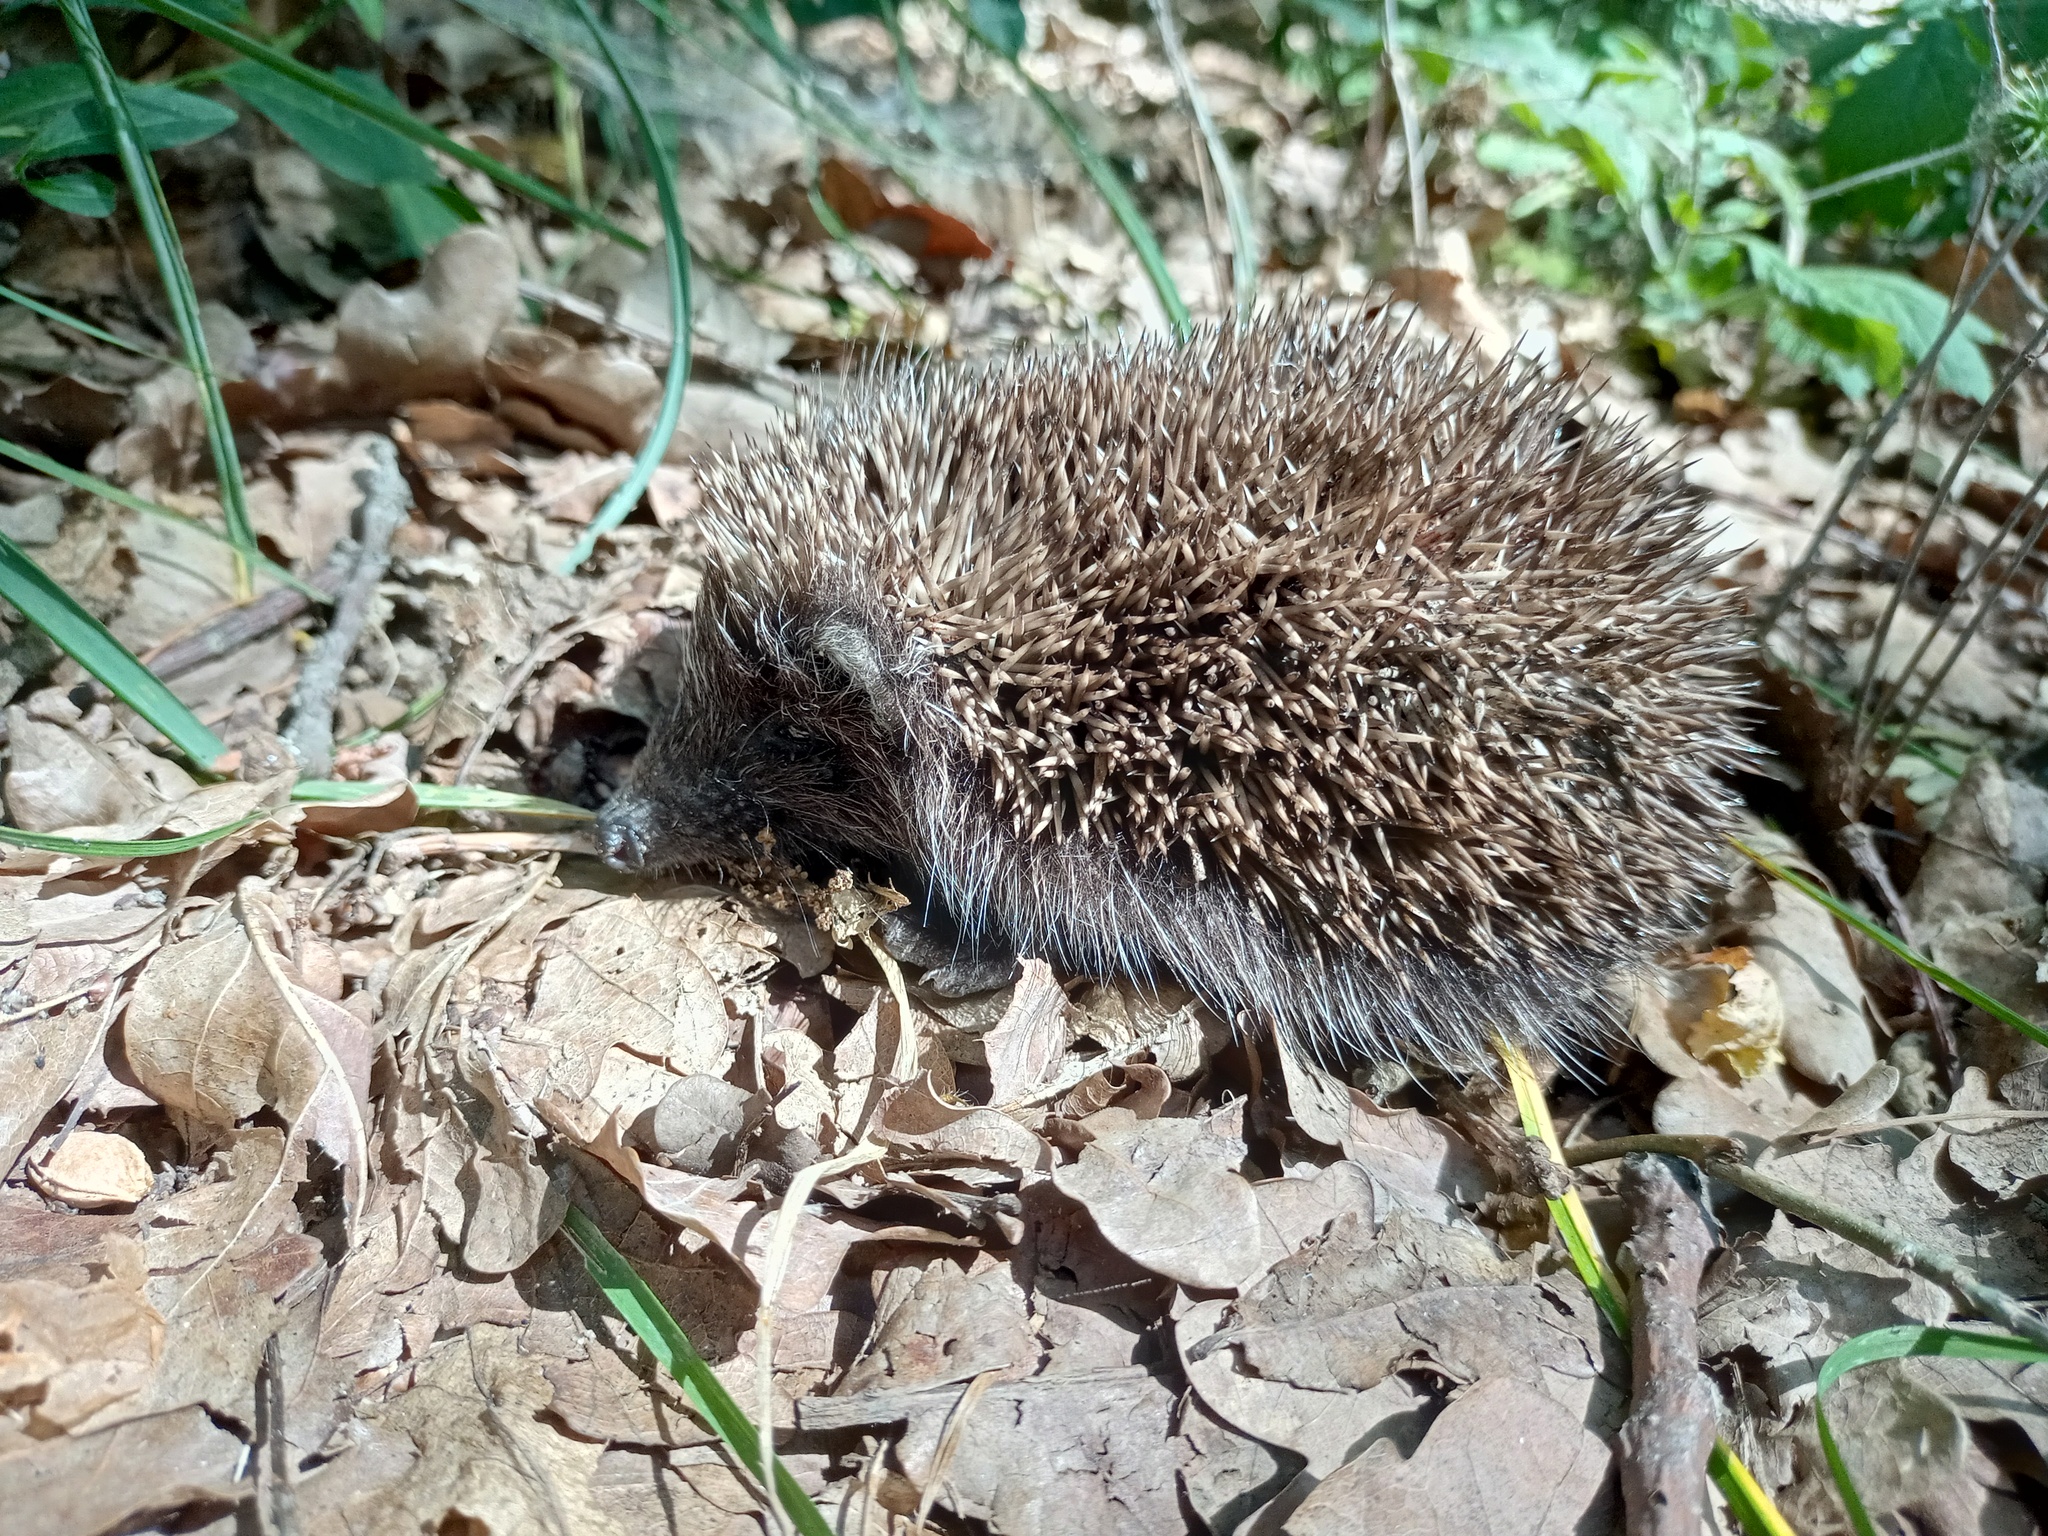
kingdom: Animalia
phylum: Chordata
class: Mammalia
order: Erinaceomorpha
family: Erinaceidae
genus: Erinaceus
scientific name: Erinaceus roumanicus
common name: Northern white-breasted hedgehog
